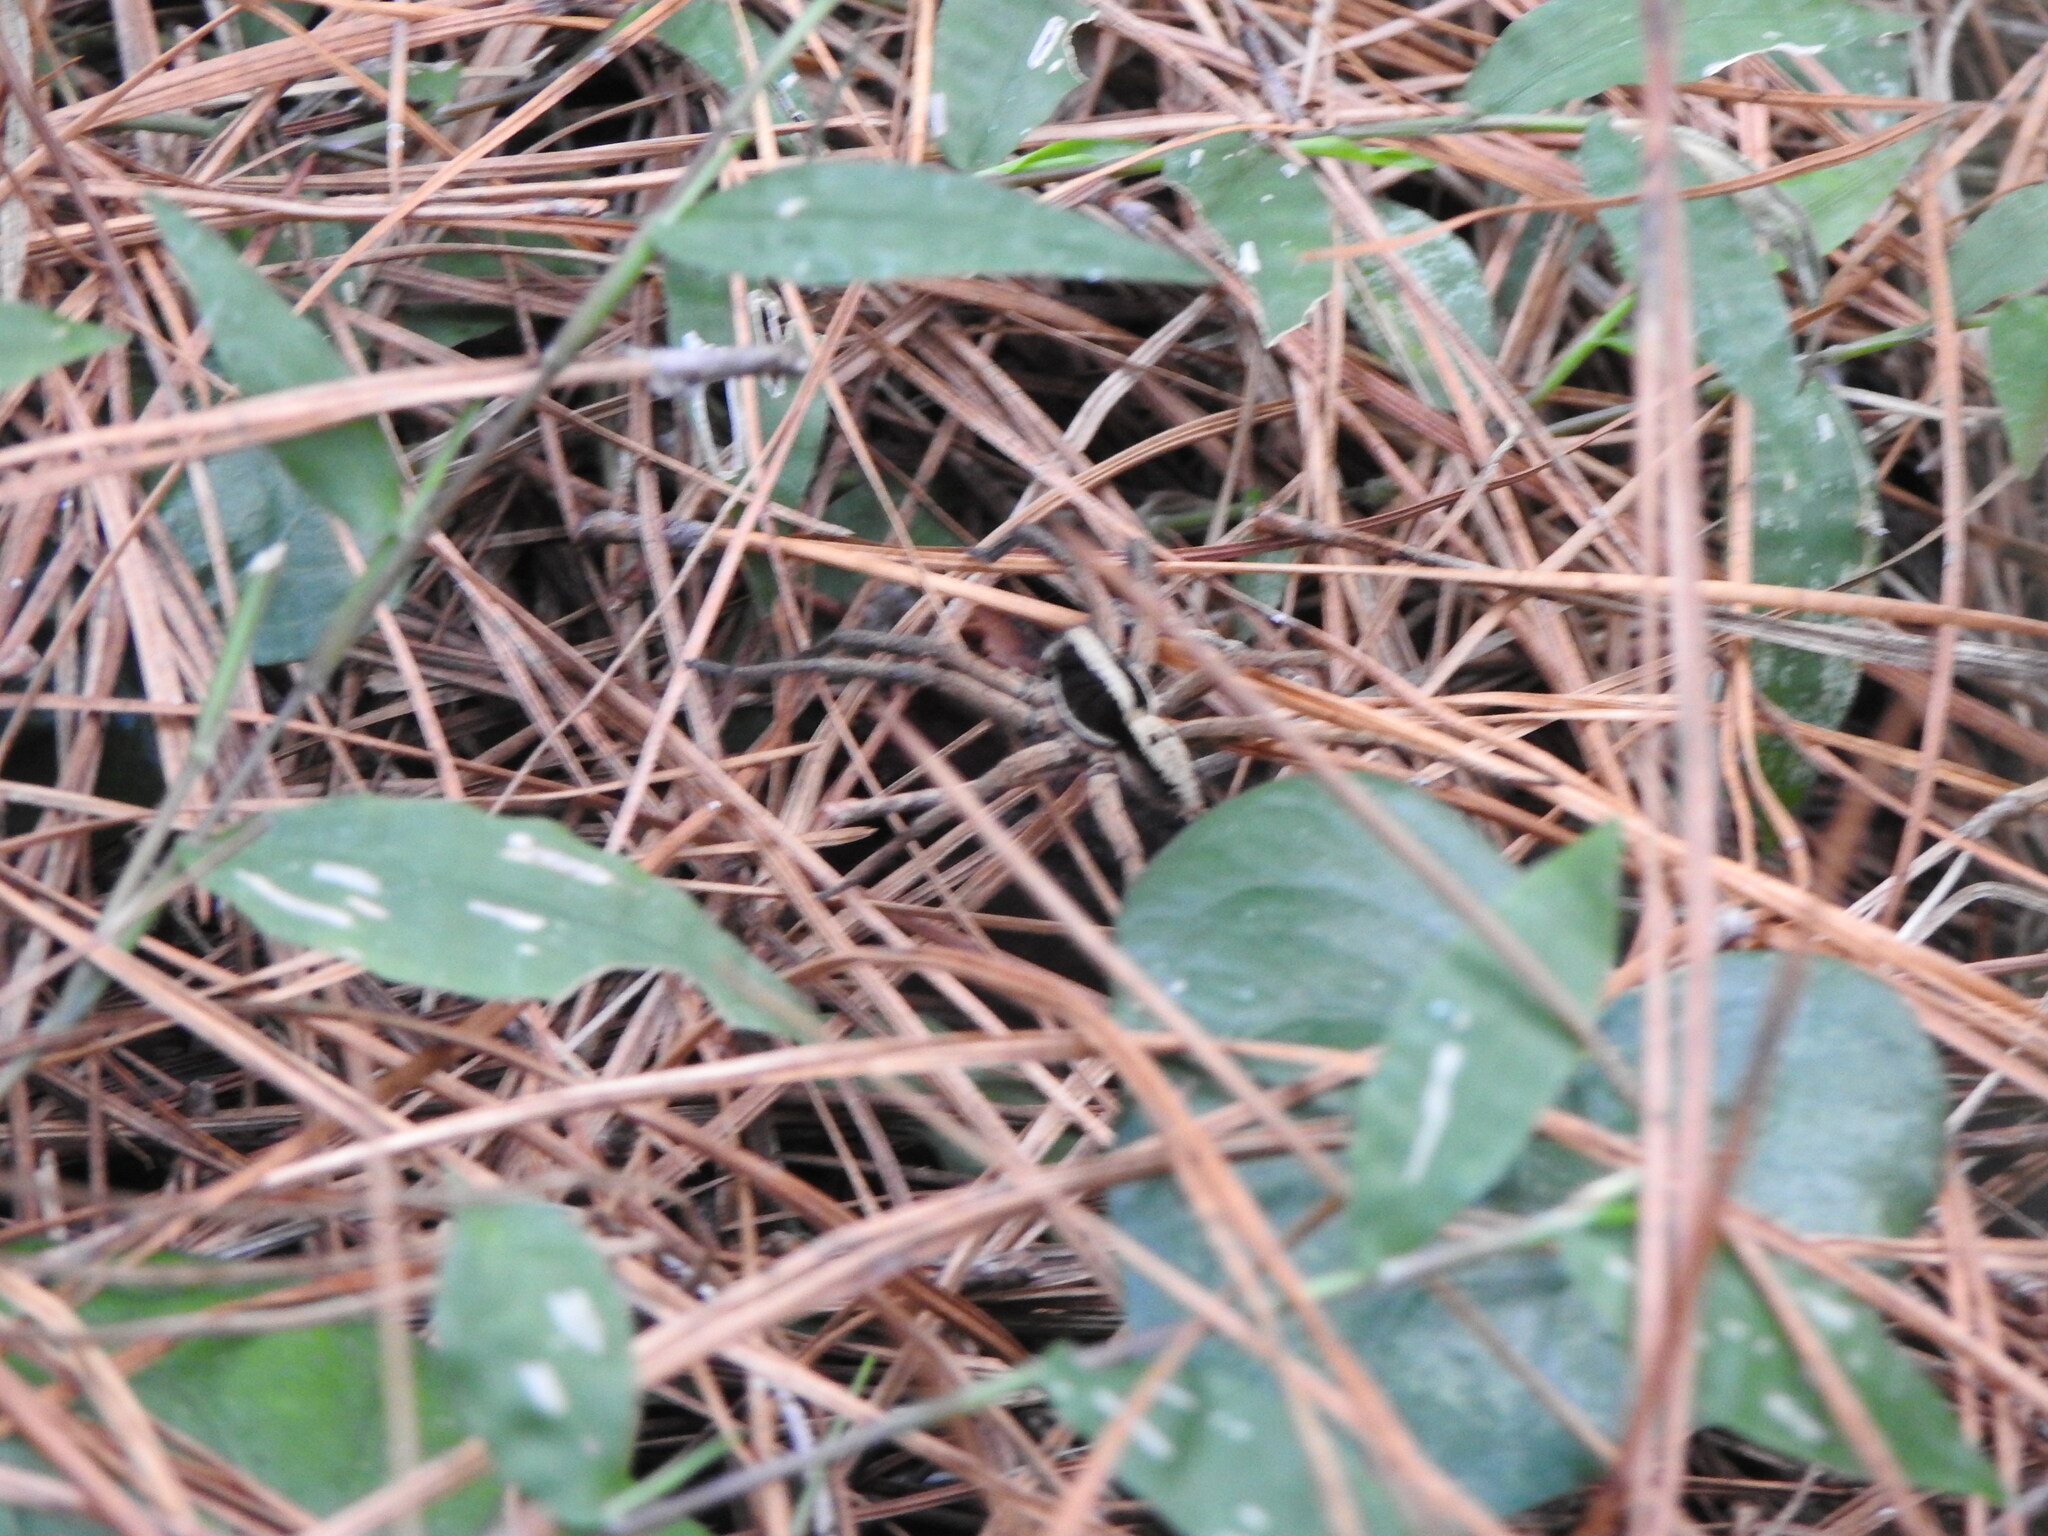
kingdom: Animalia
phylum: Arthropoda
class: Arachnida
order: Araneae
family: Lycosidae
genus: Hogna
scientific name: Hogna gumia
